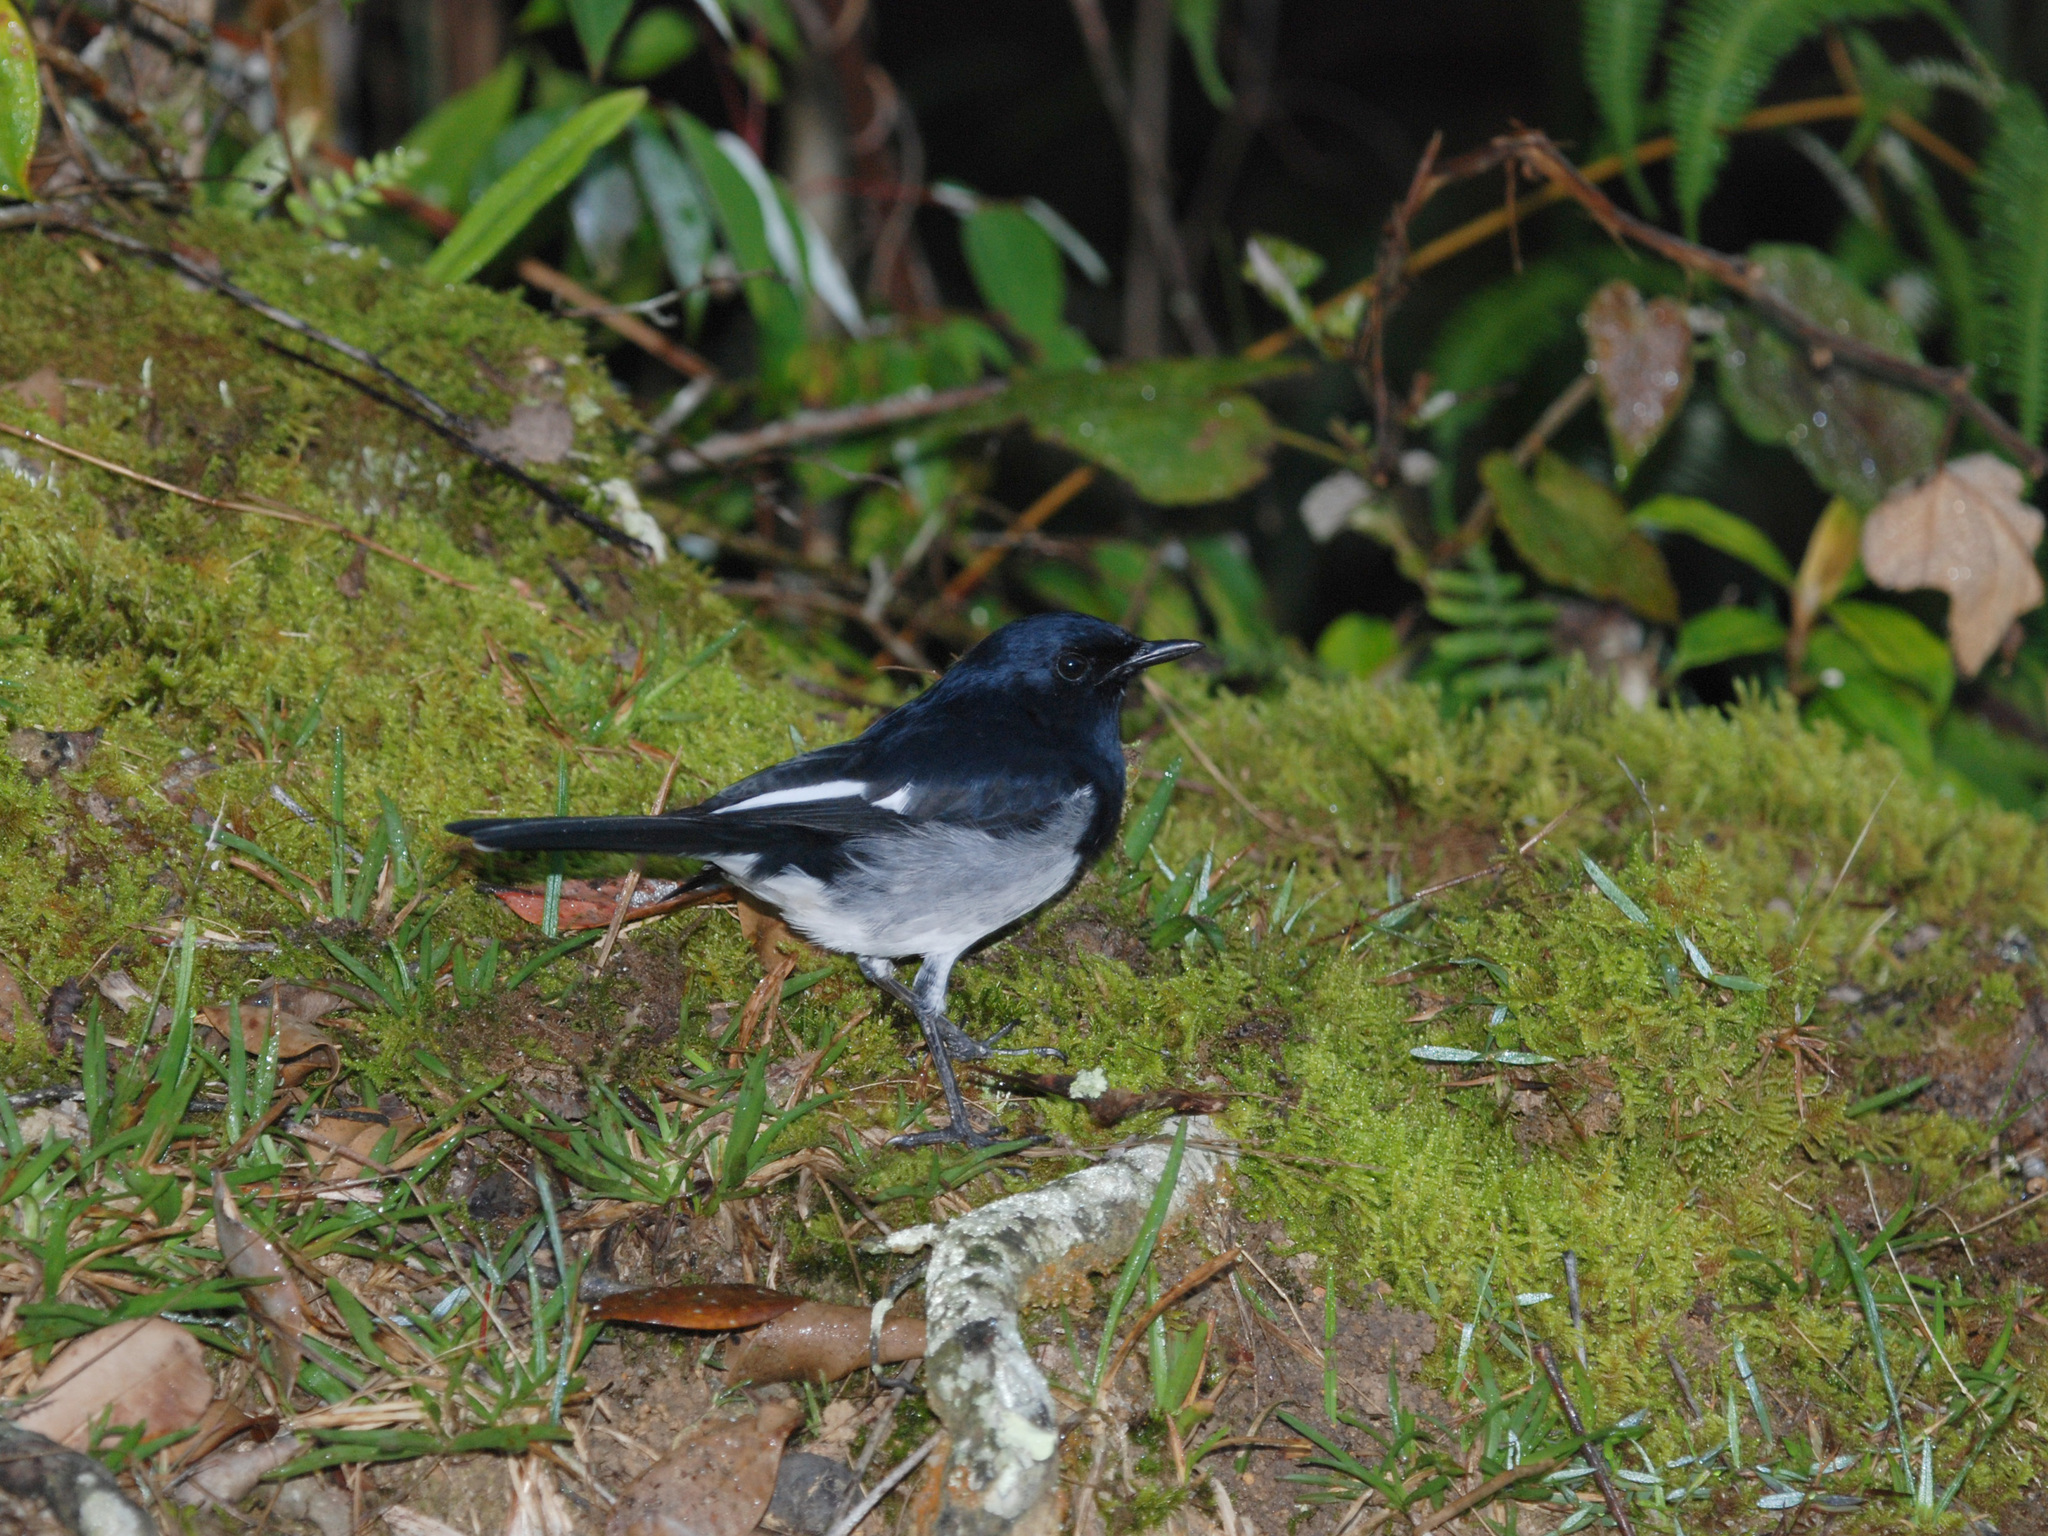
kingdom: Animalia
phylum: Chordata
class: Aves
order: Passeriformes
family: Muscicapidae
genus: Copsychus
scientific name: Copsychus saularis
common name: Oriental magpie-robin
